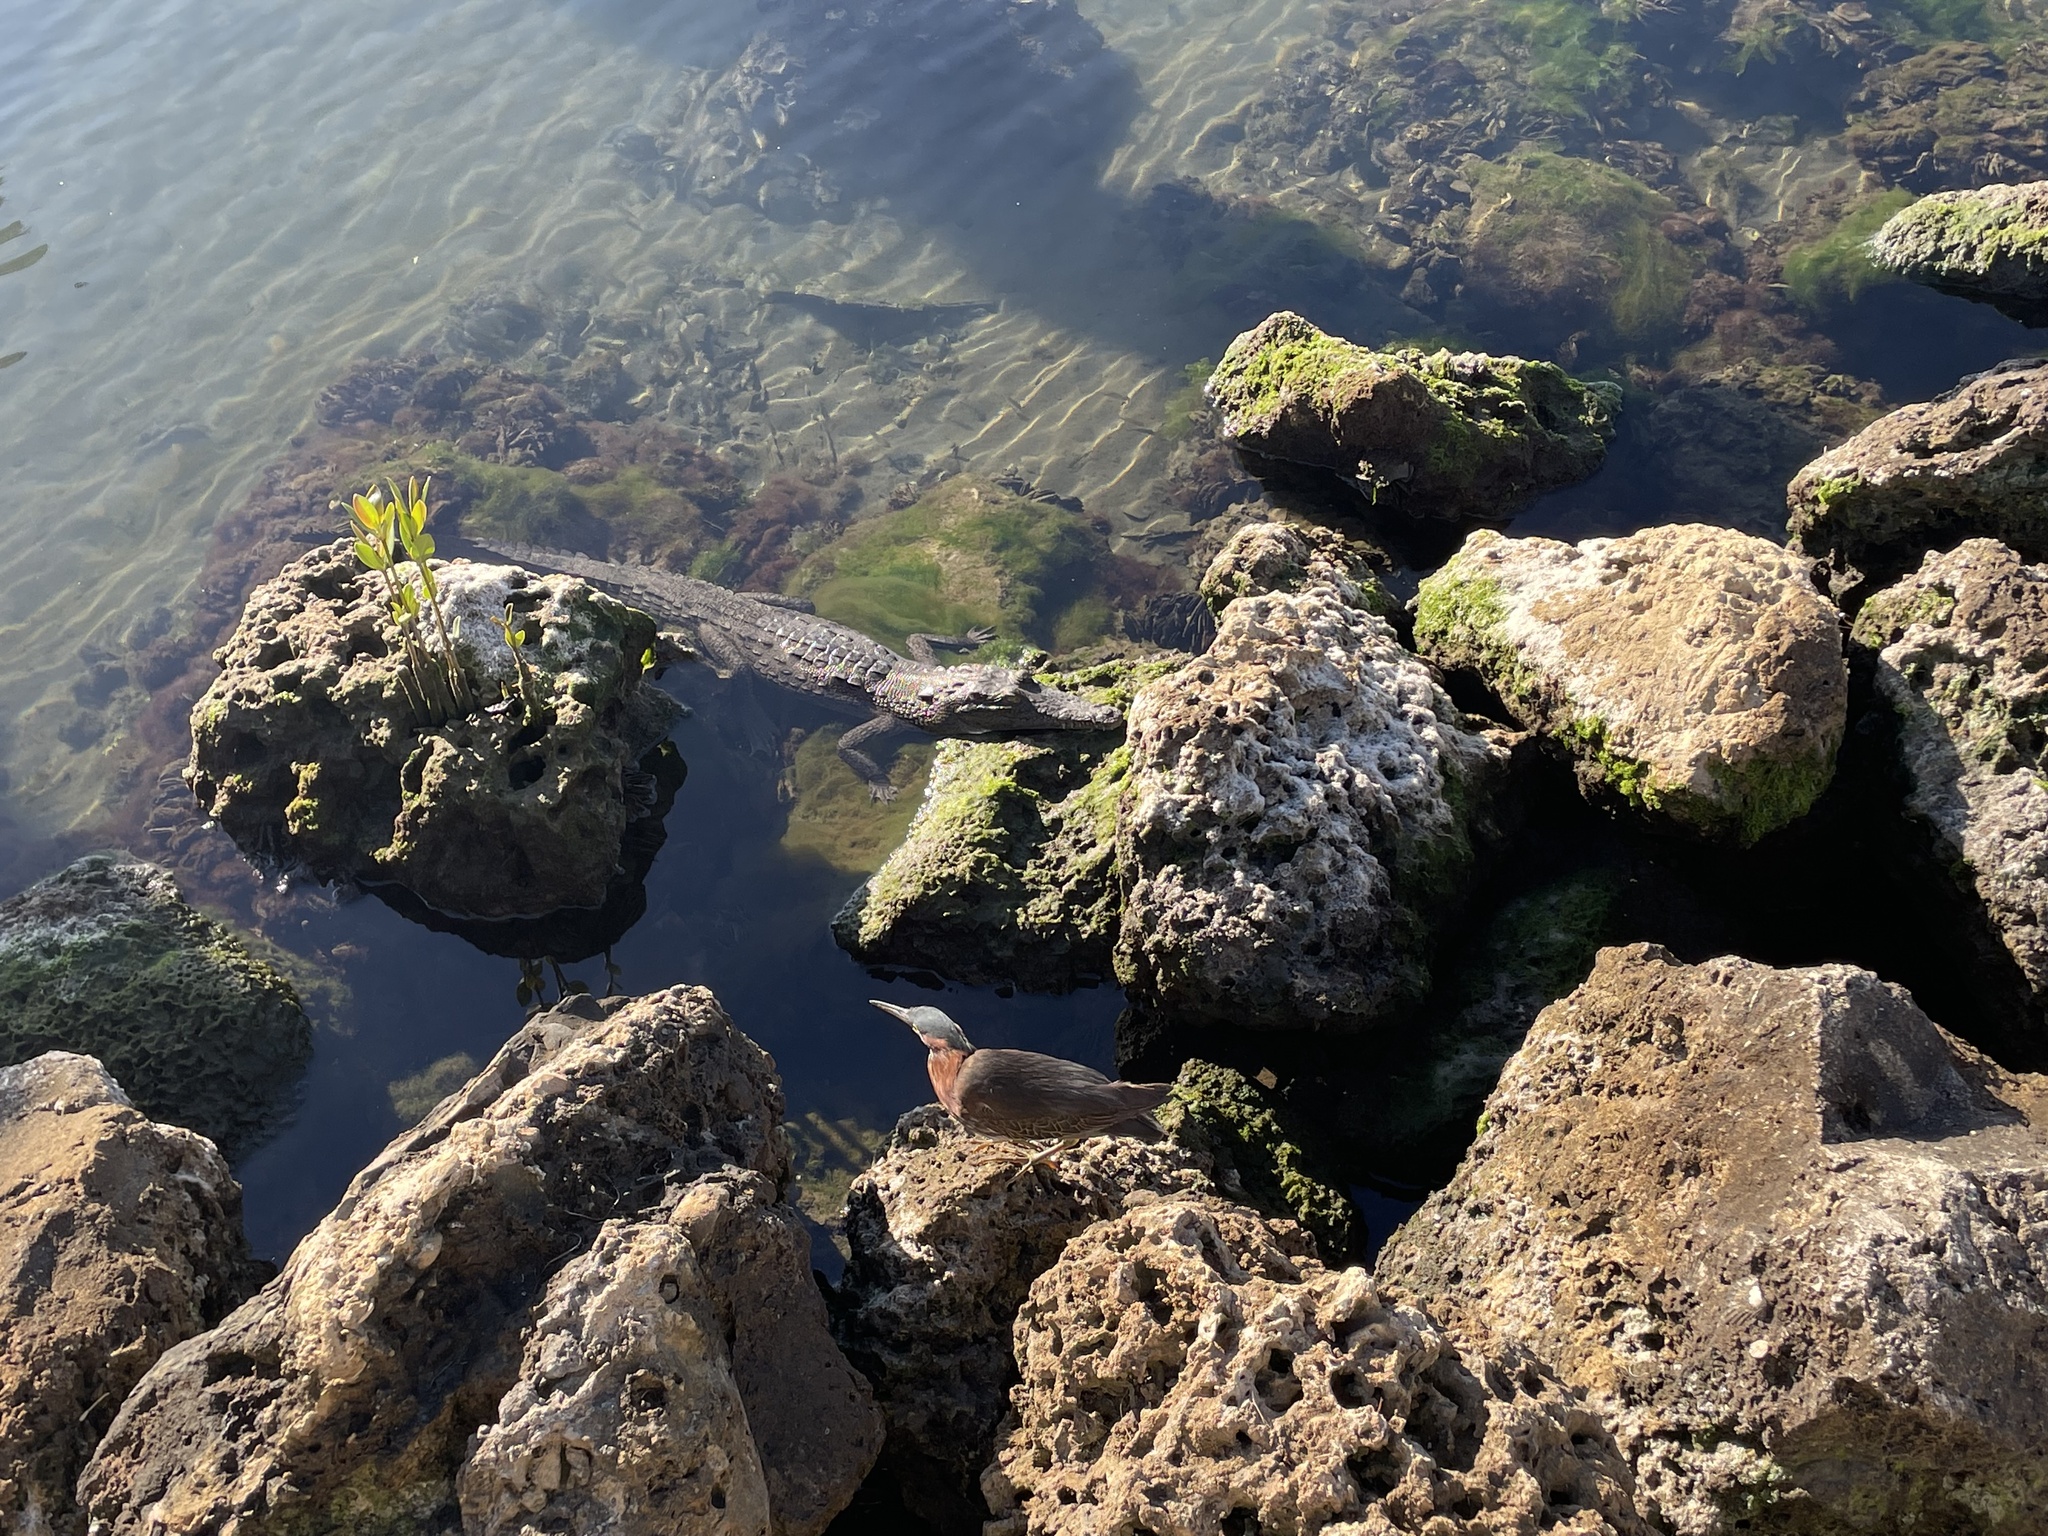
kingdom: Animalia
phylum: Chordata
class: Crocodylia
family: Crocodylidae
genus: Crocodylus
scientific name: Crocodylus acutus
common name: American crocodile
